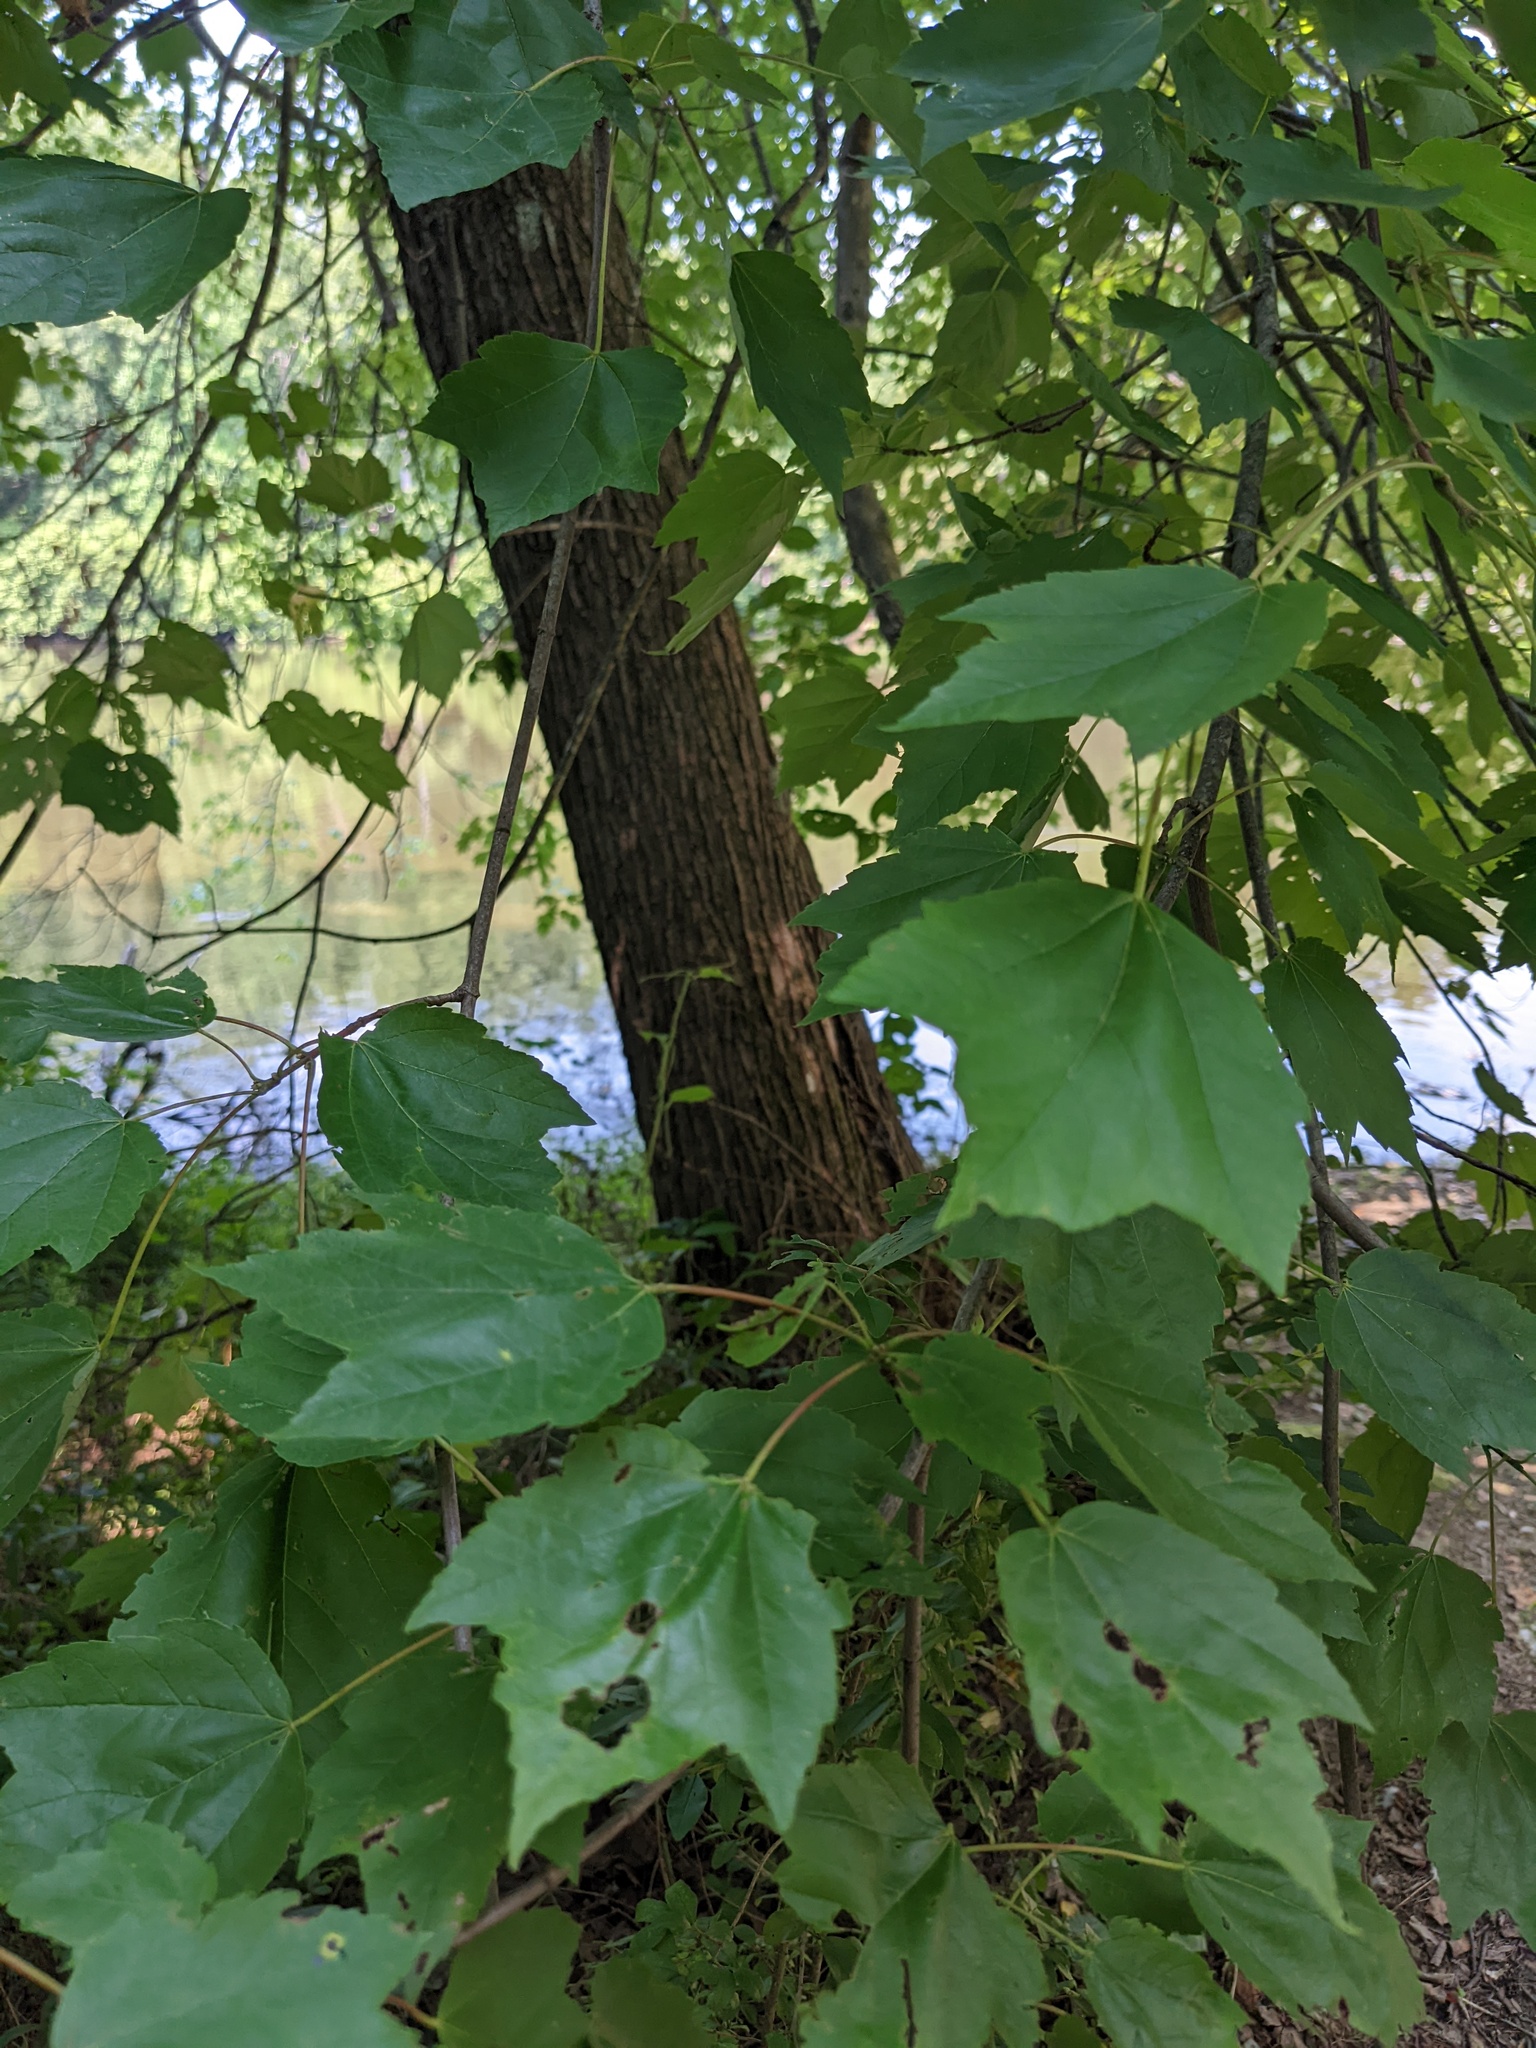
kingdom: Plantae
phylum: Tracheophyta
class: Magnoliopsida
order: Sapindales
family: Sapindaceae
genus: Acer
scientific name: Acer rubrum
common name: Red maple
